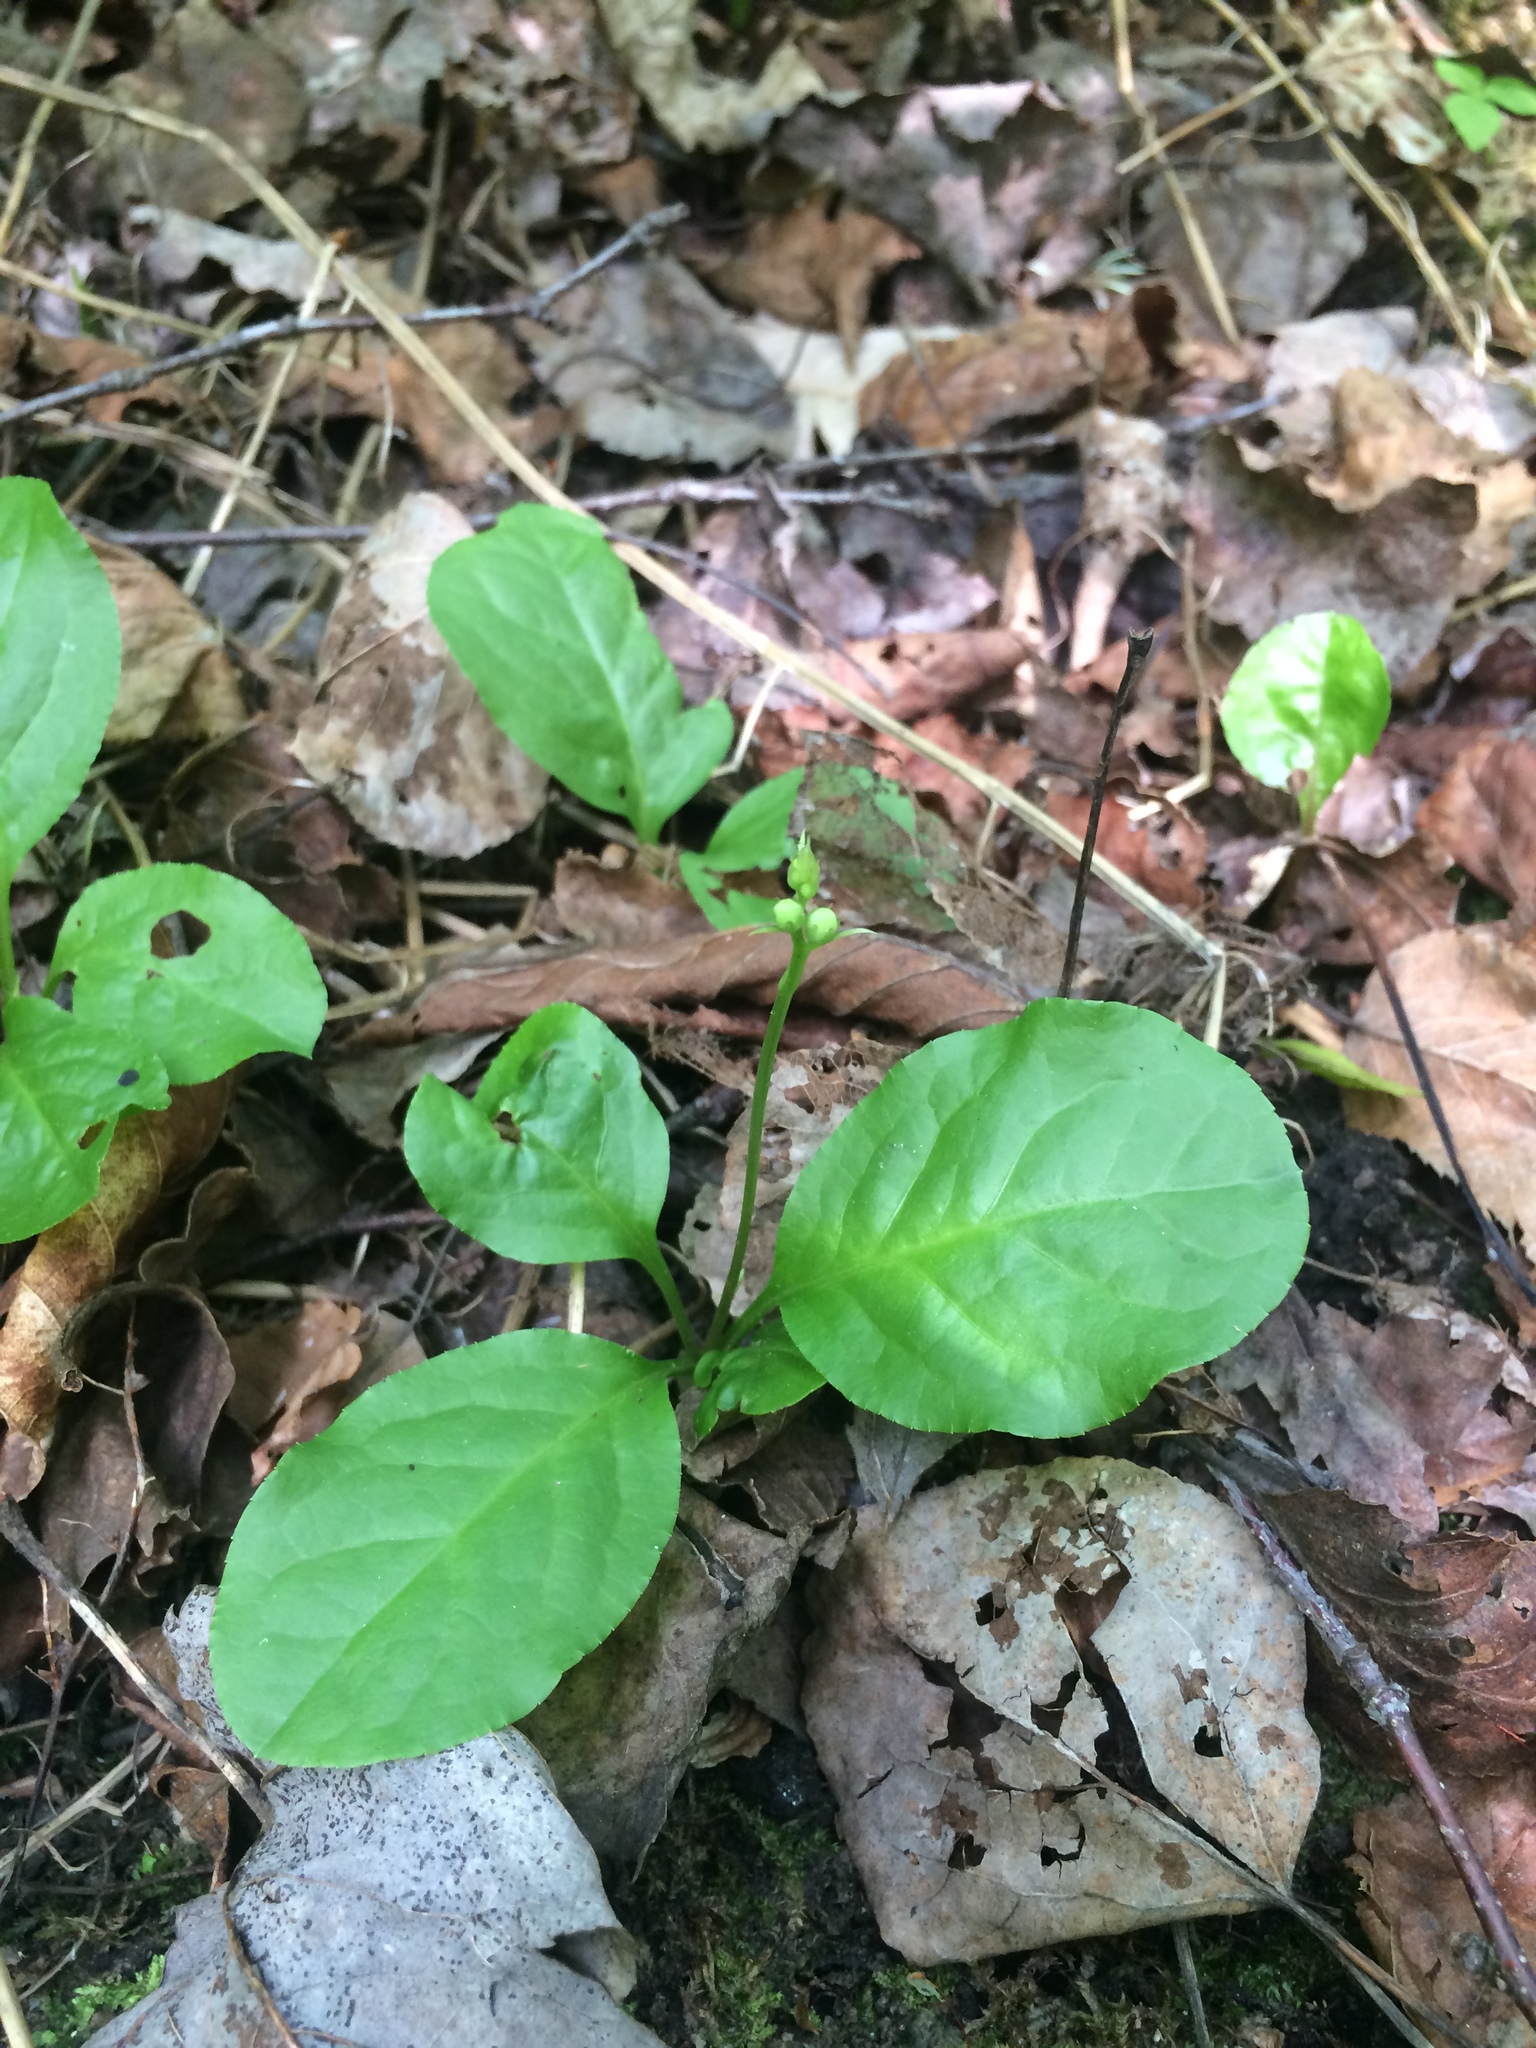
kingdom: Plantae
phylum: Tracheophyta
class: Magnoliopsida
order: Ericales
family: Ericaceae
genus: Pyrola
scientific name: Pyrola elliptica
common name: Shinleaf
